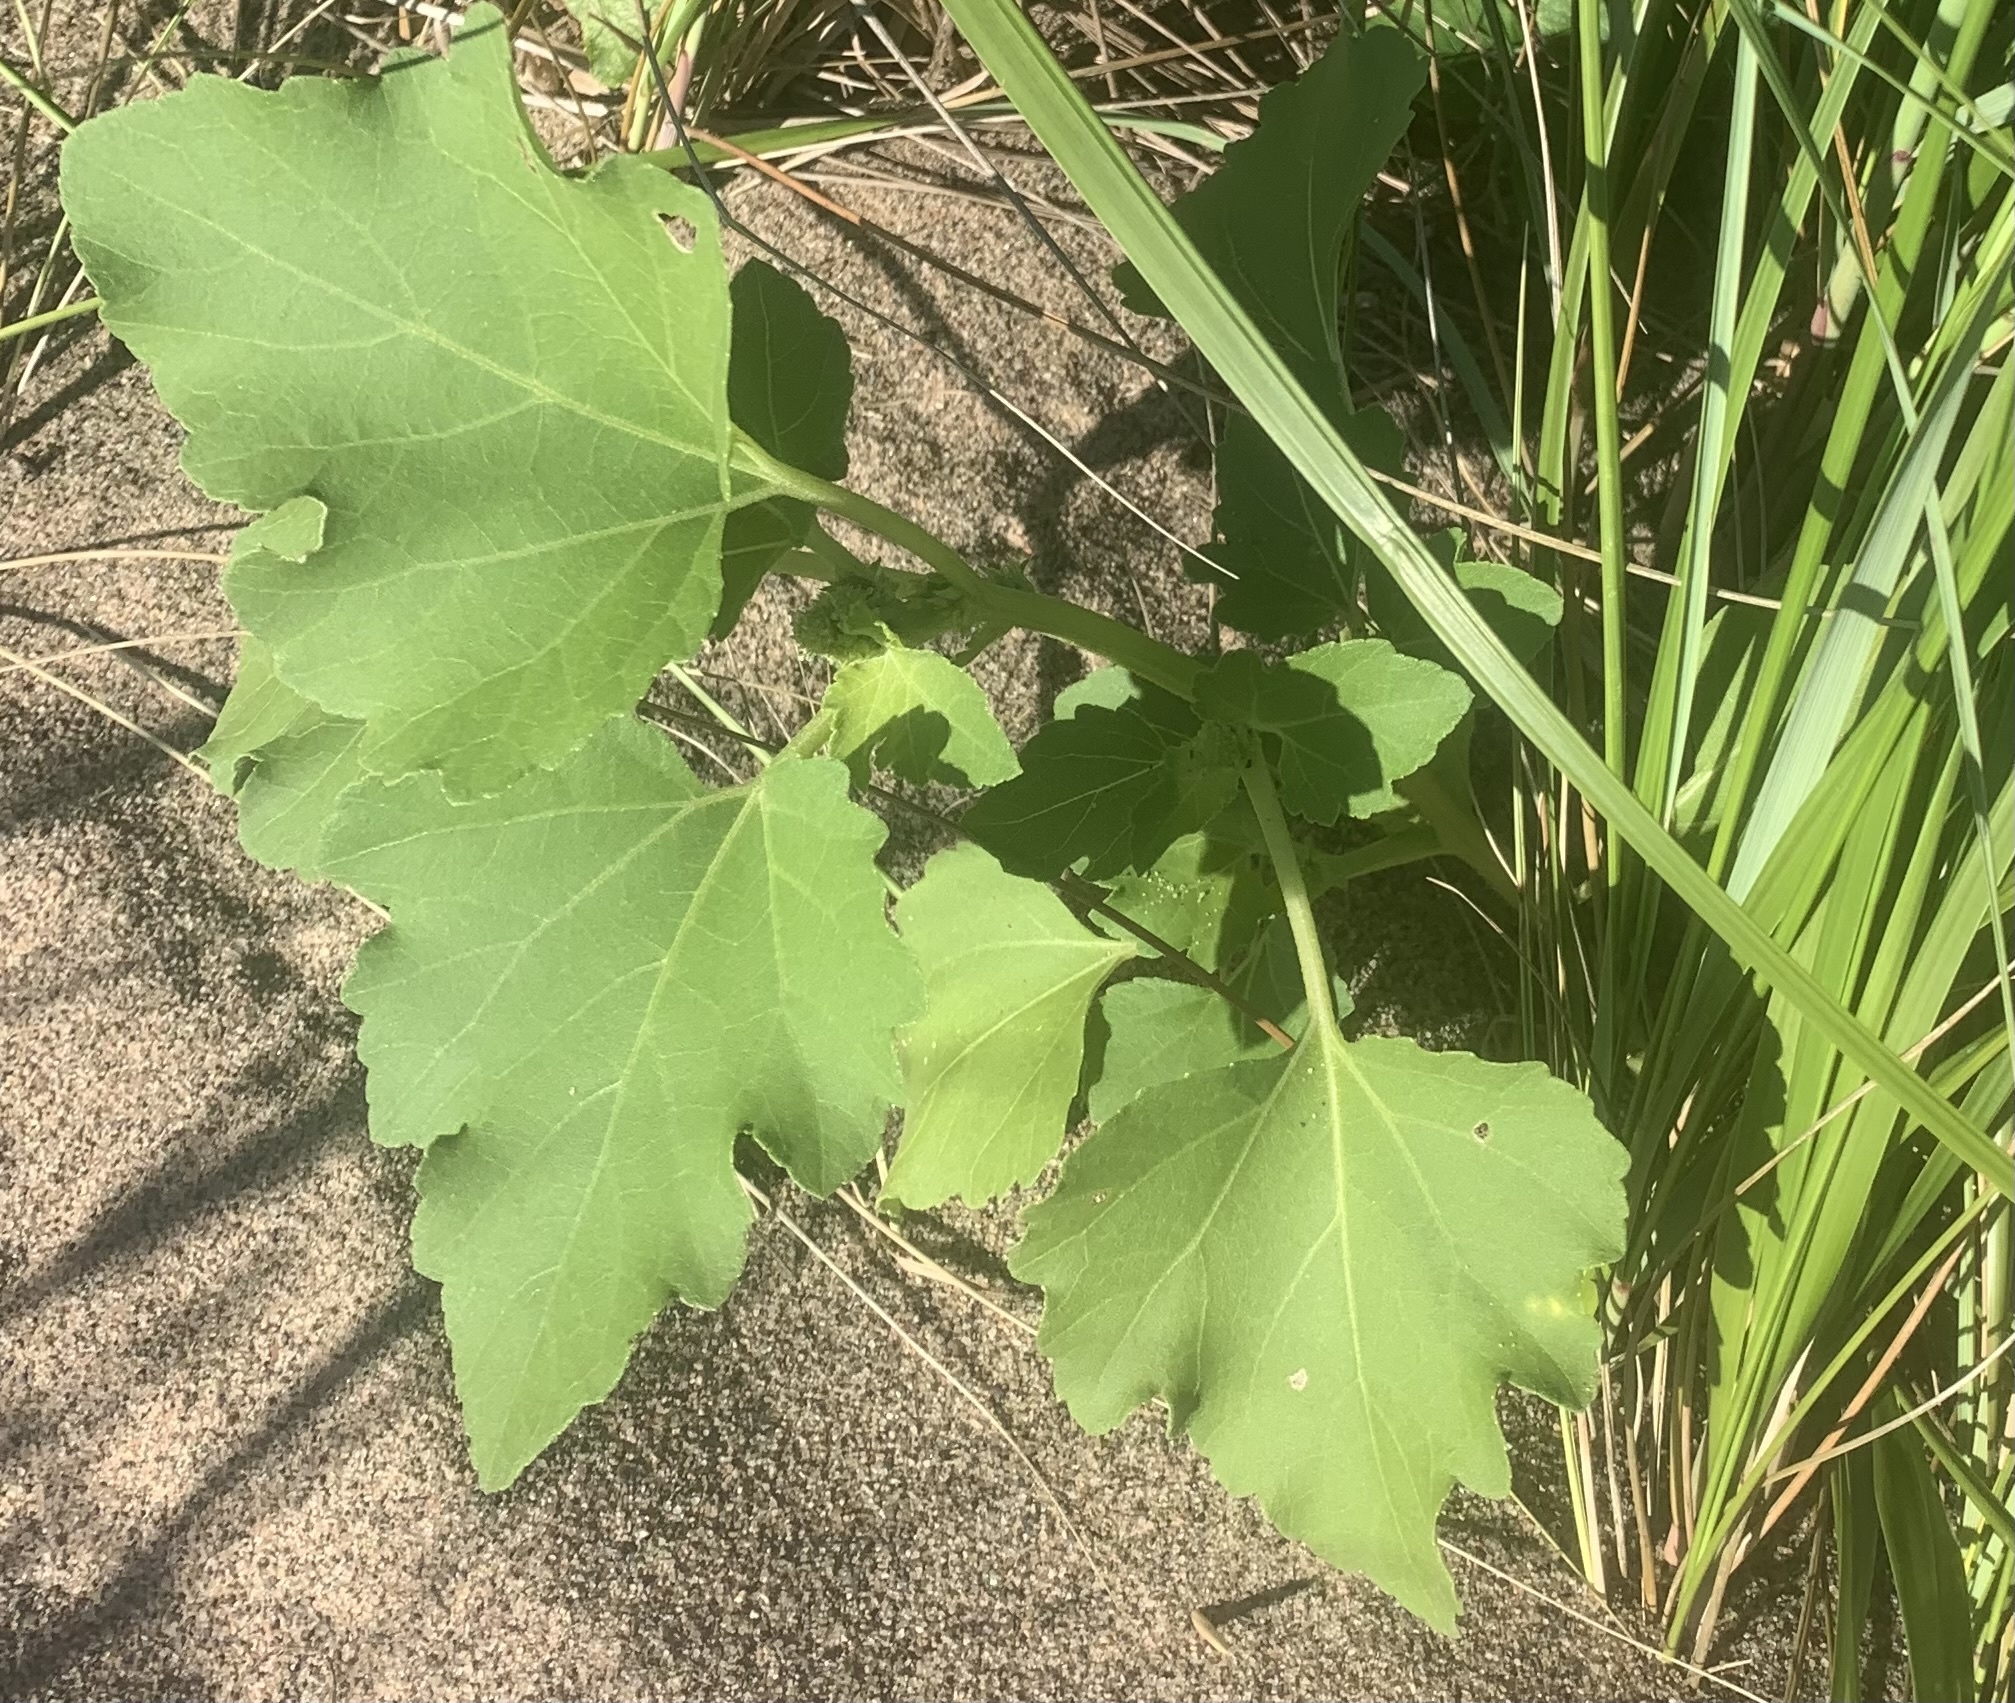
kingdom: Plantae
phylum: Tracheophyta
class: Magnoliopsida
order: Asterales
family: Asteraceae
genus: Xanthium
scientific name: Xanthium strumarium
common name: Rough cocklebur
